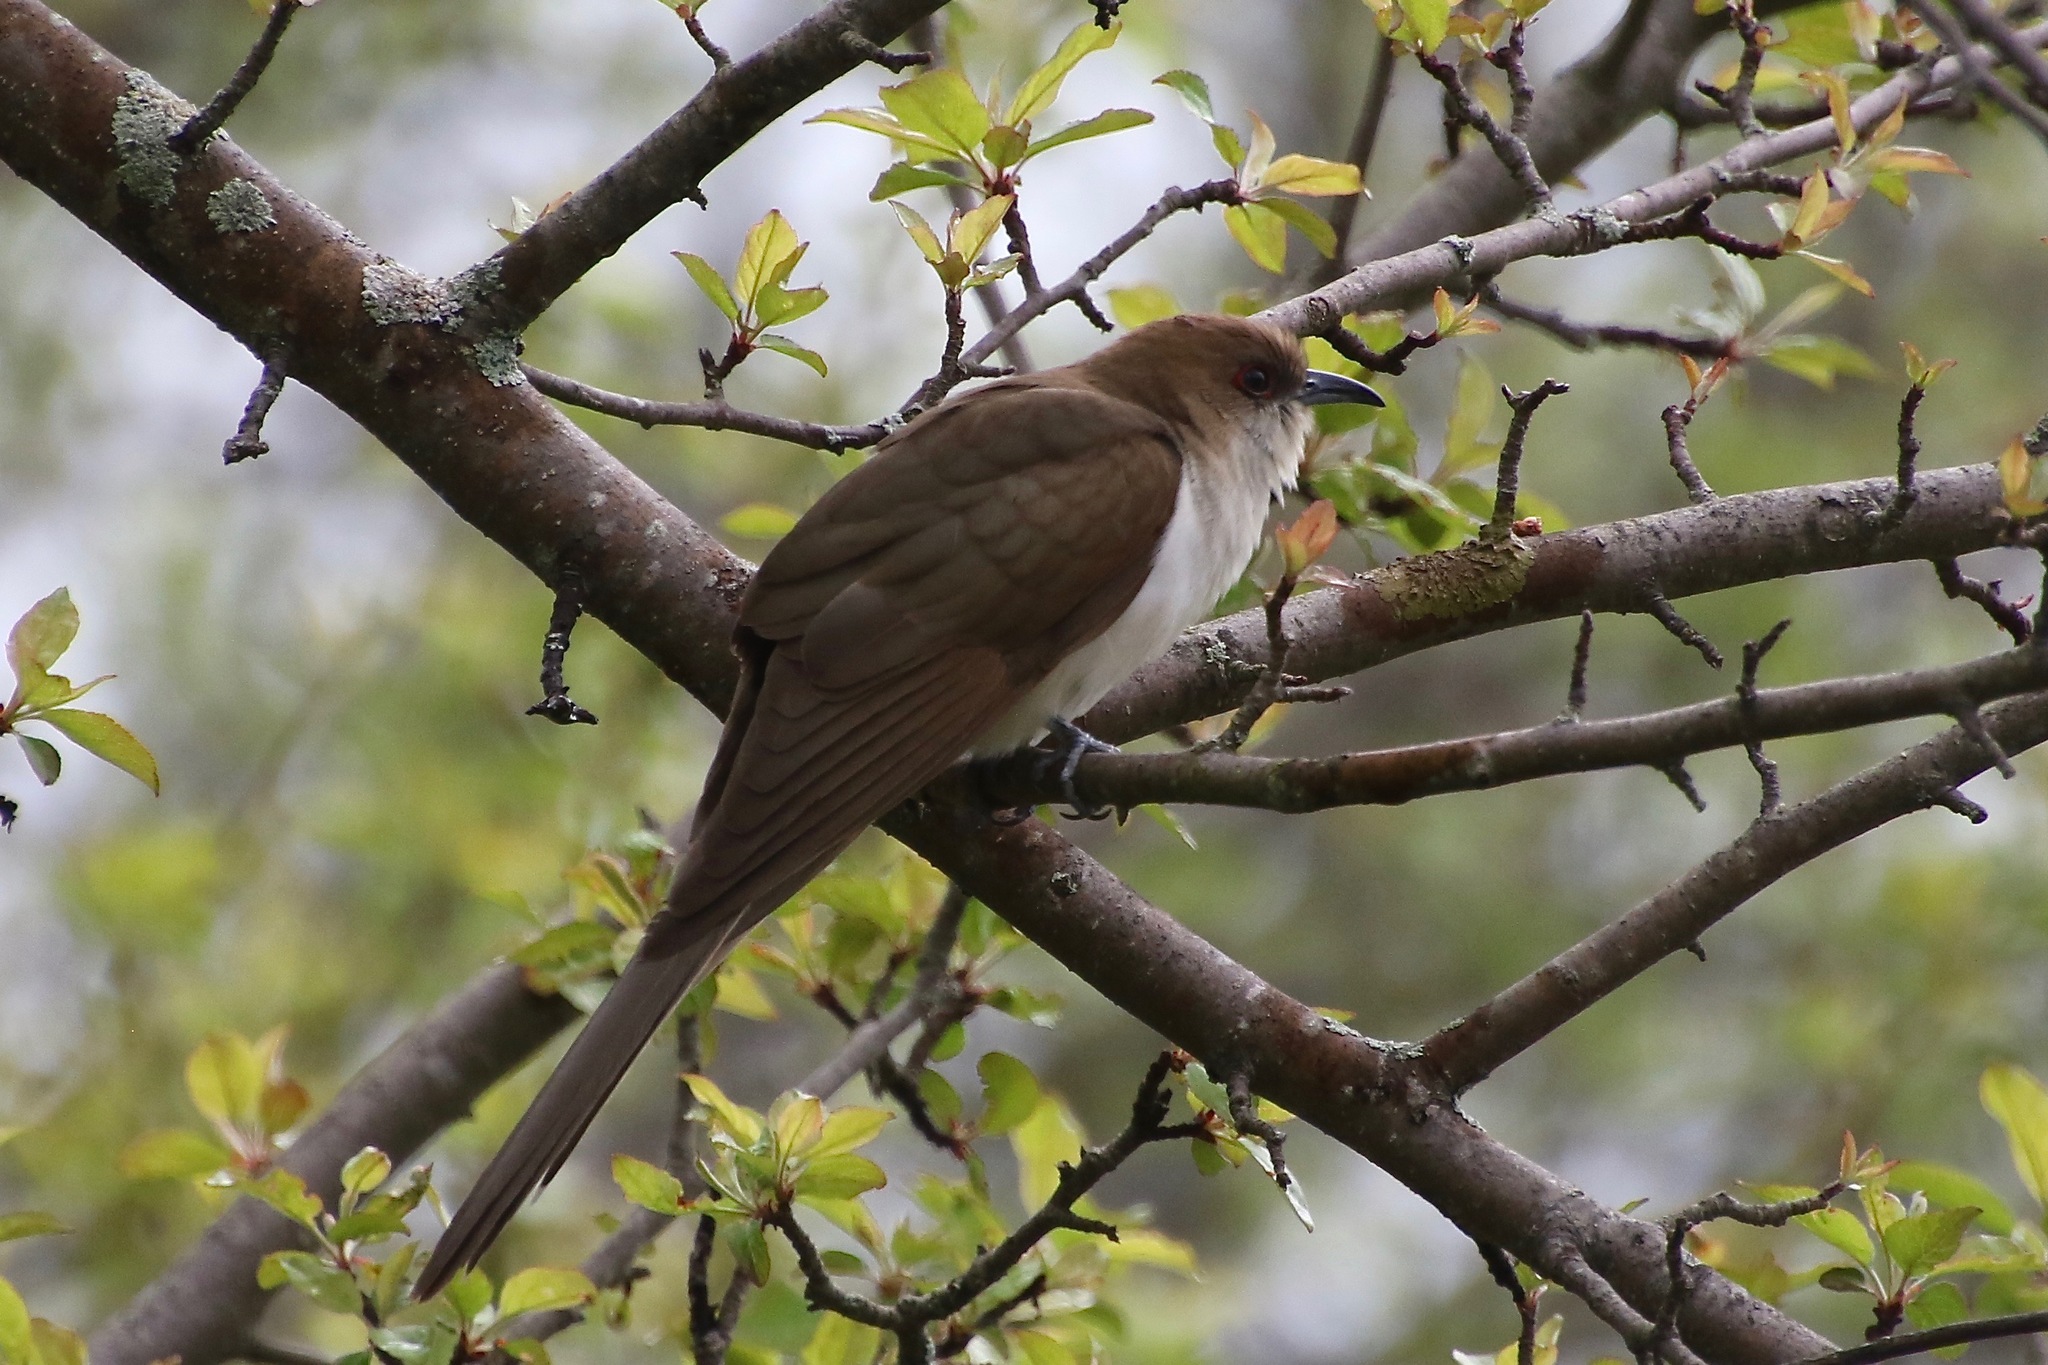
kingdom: Animalia
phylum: Chordata
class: Aves
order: Cuculiformes
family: Cuculidae
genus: Coccyzus
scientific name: Coccyzus erythropthalmus
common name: Black-billed cuckoo
